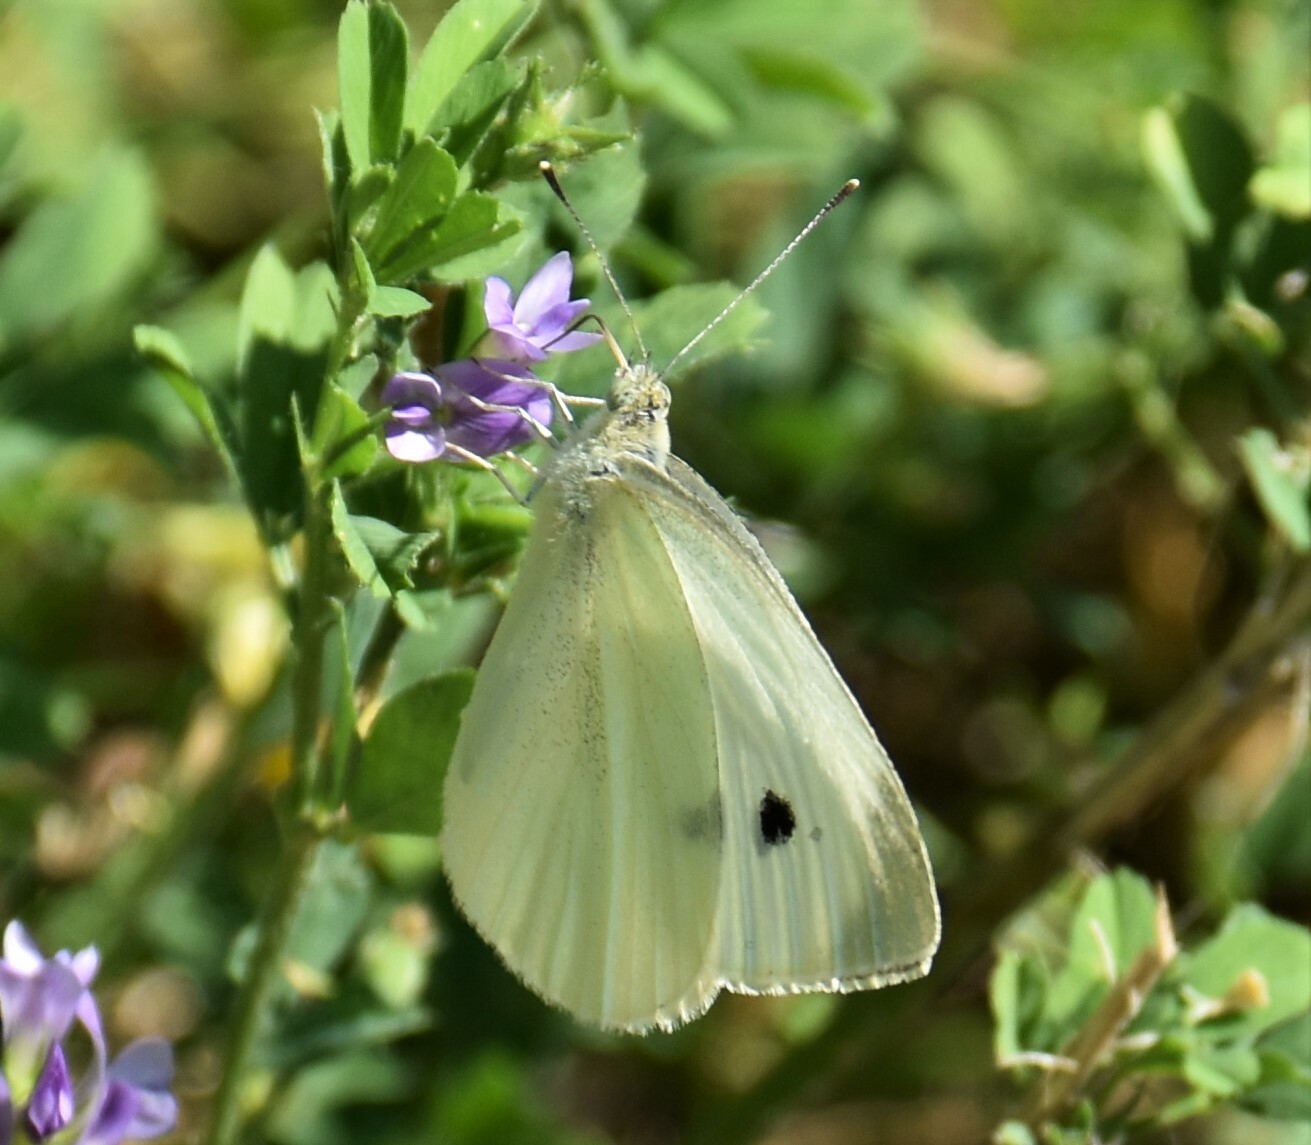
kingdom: Animalia
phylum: Arthropoda
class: Insecta
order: Lepidoptera
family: Pieridae
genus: Pieris
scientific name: Pieris rapae
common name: Small white
